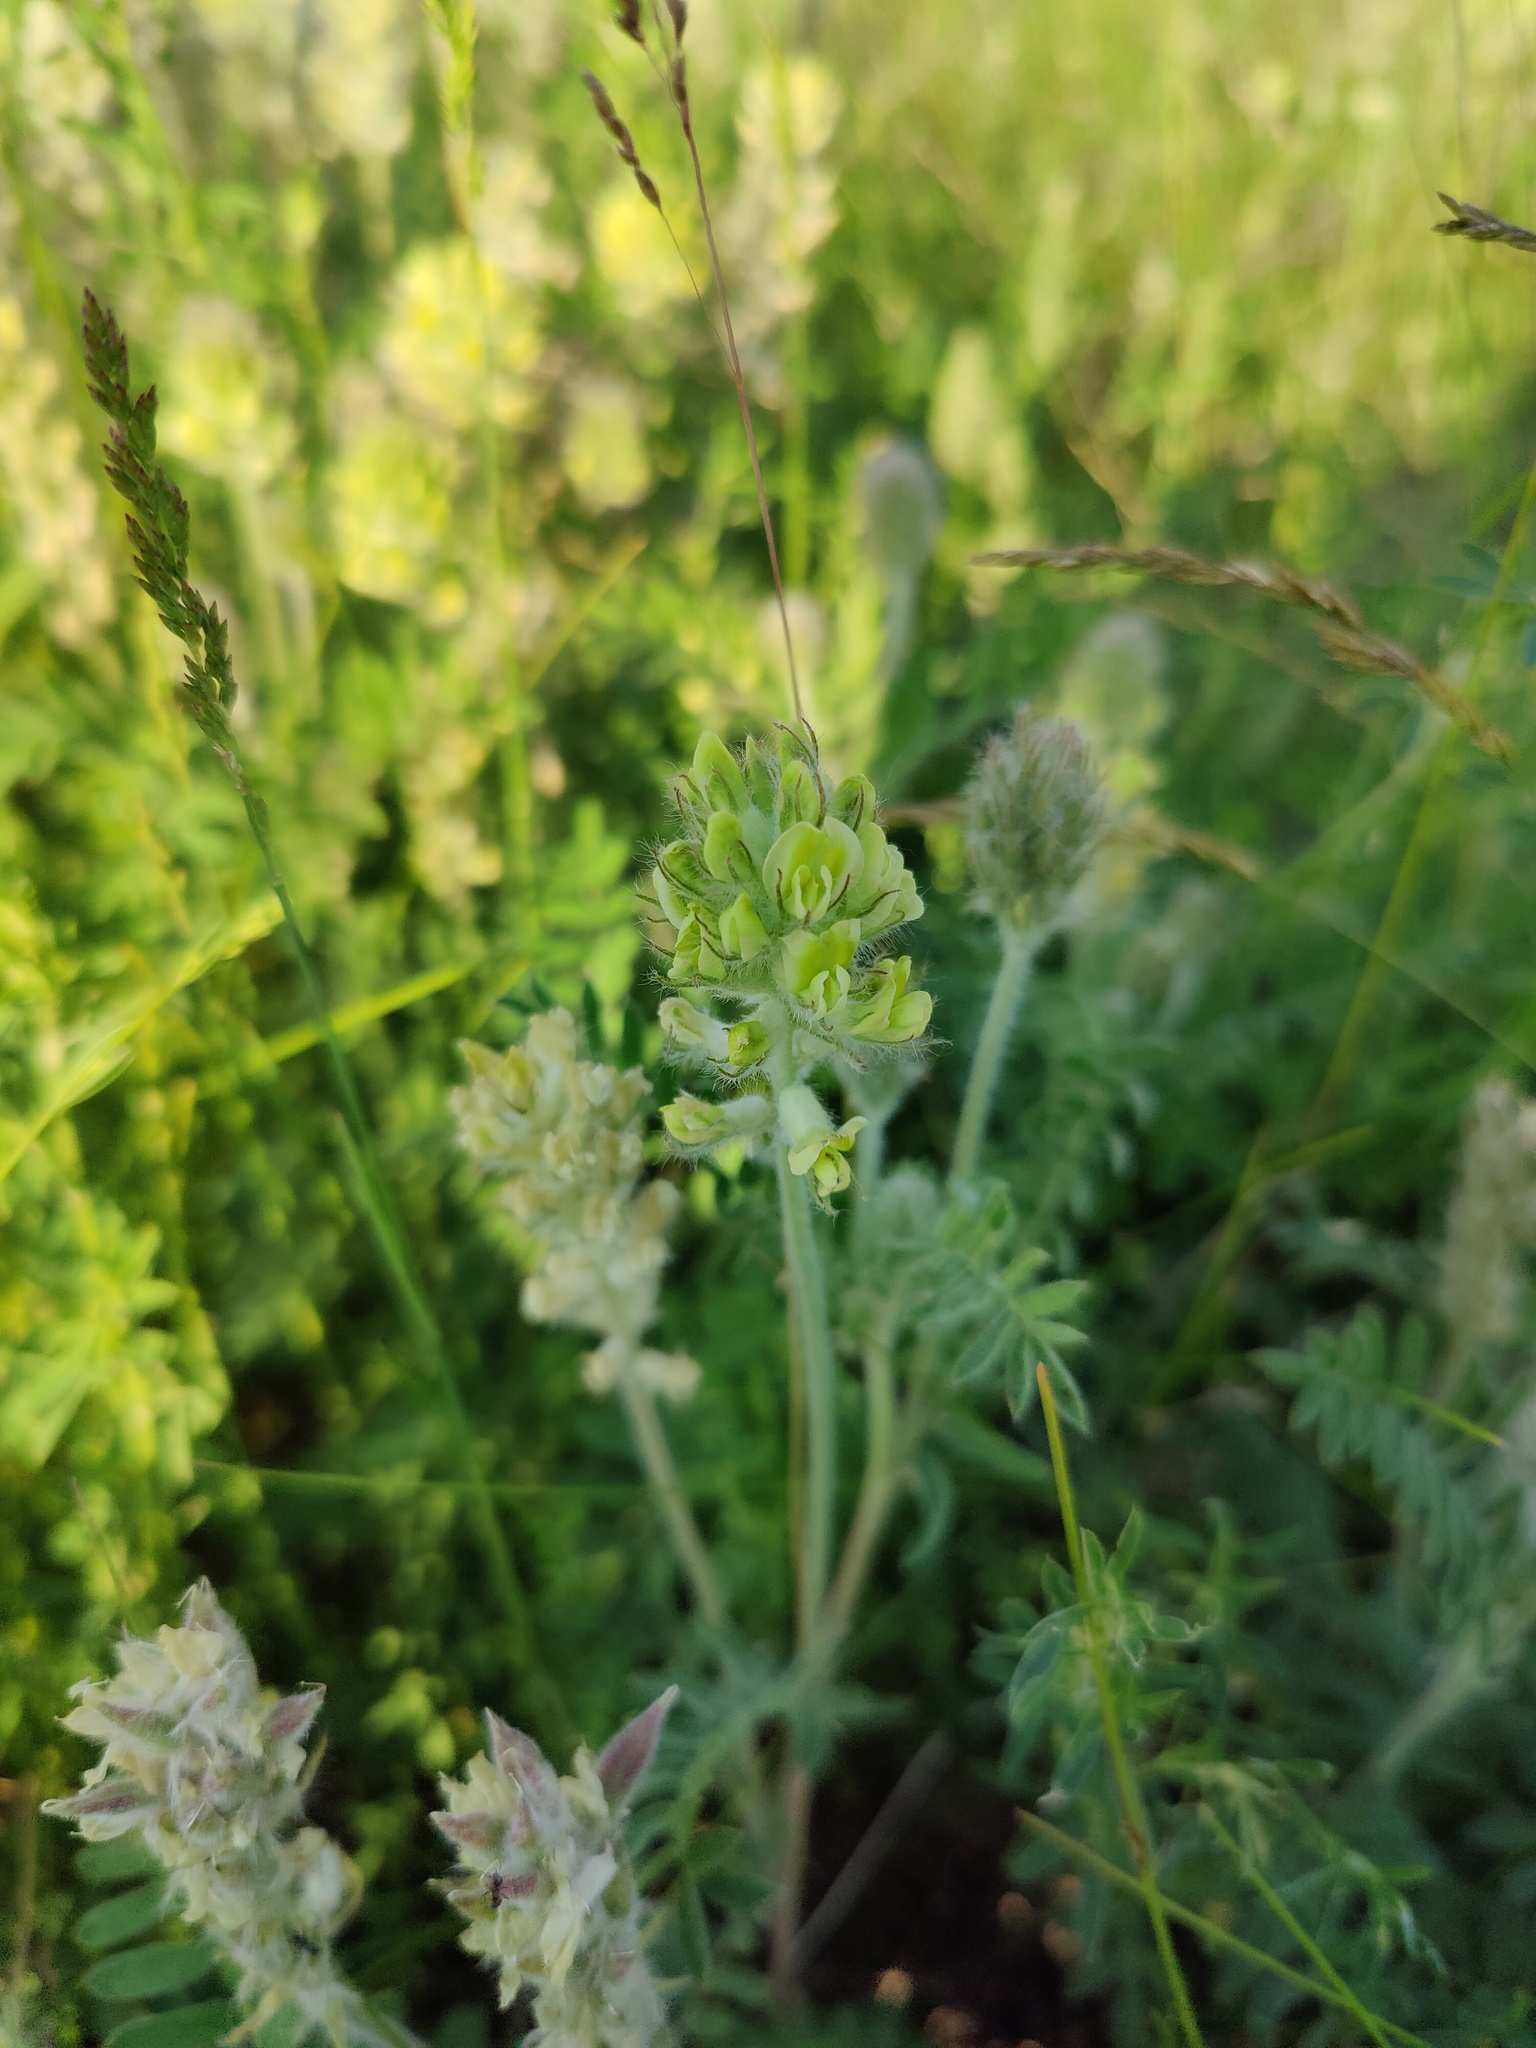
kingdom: Plantae
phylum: Tracheophyta
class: Magnoliopsida
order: Fabales
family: Fabaceae
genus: Oxytropis
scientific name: Oxytropis pilosa
